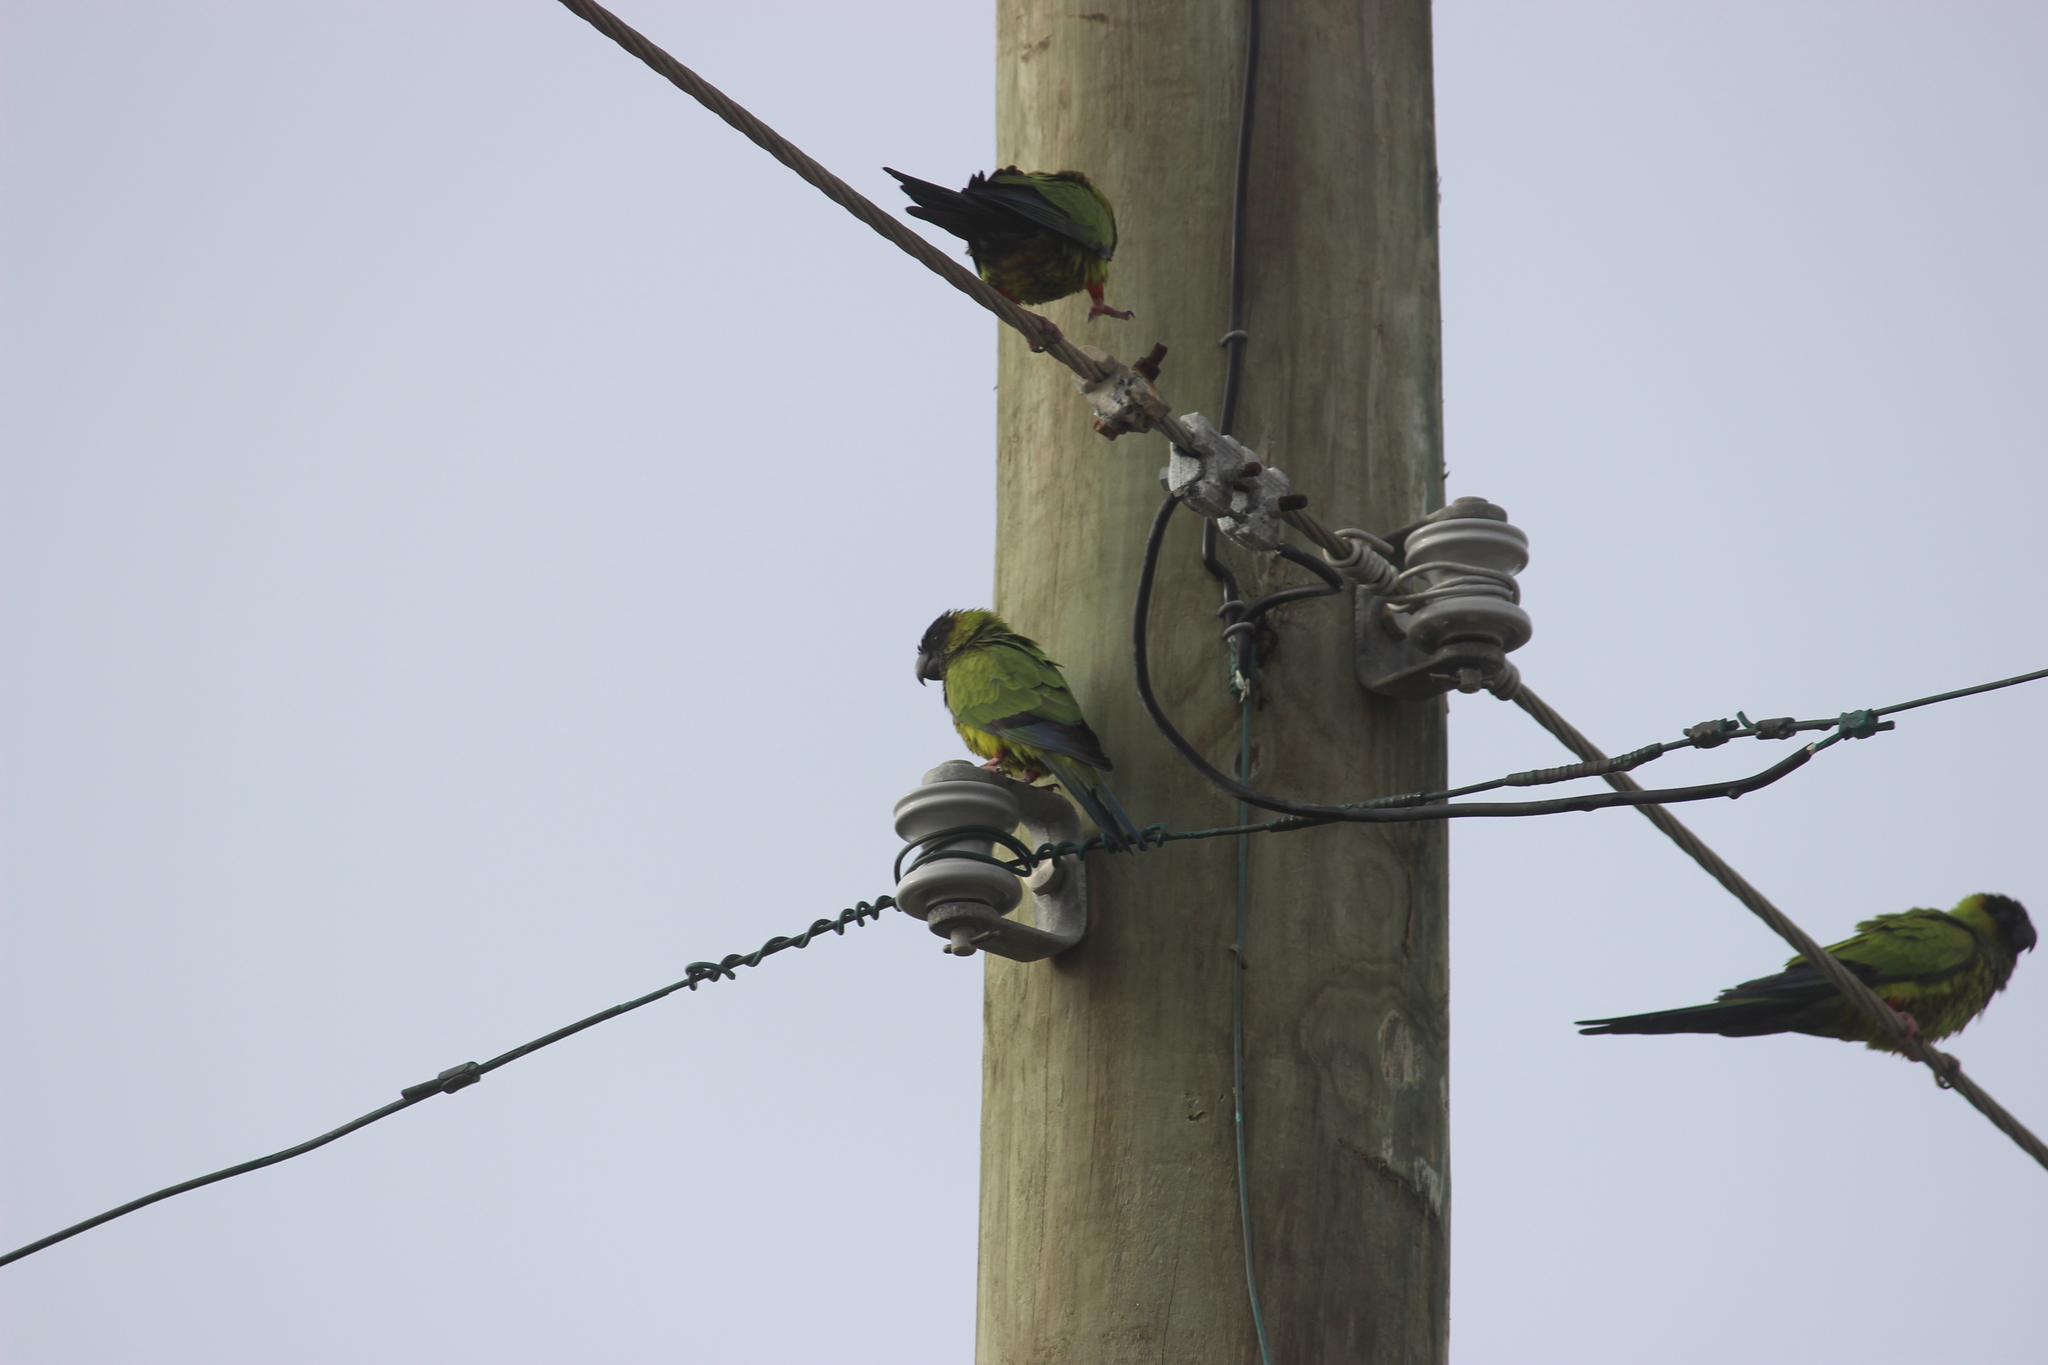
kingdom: Animalia
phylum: Chordata
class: Aves
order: Psittaciformes
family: Psittacidae
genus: Nandayus
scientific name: Nandayus nenday
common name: Nanday parakeet
